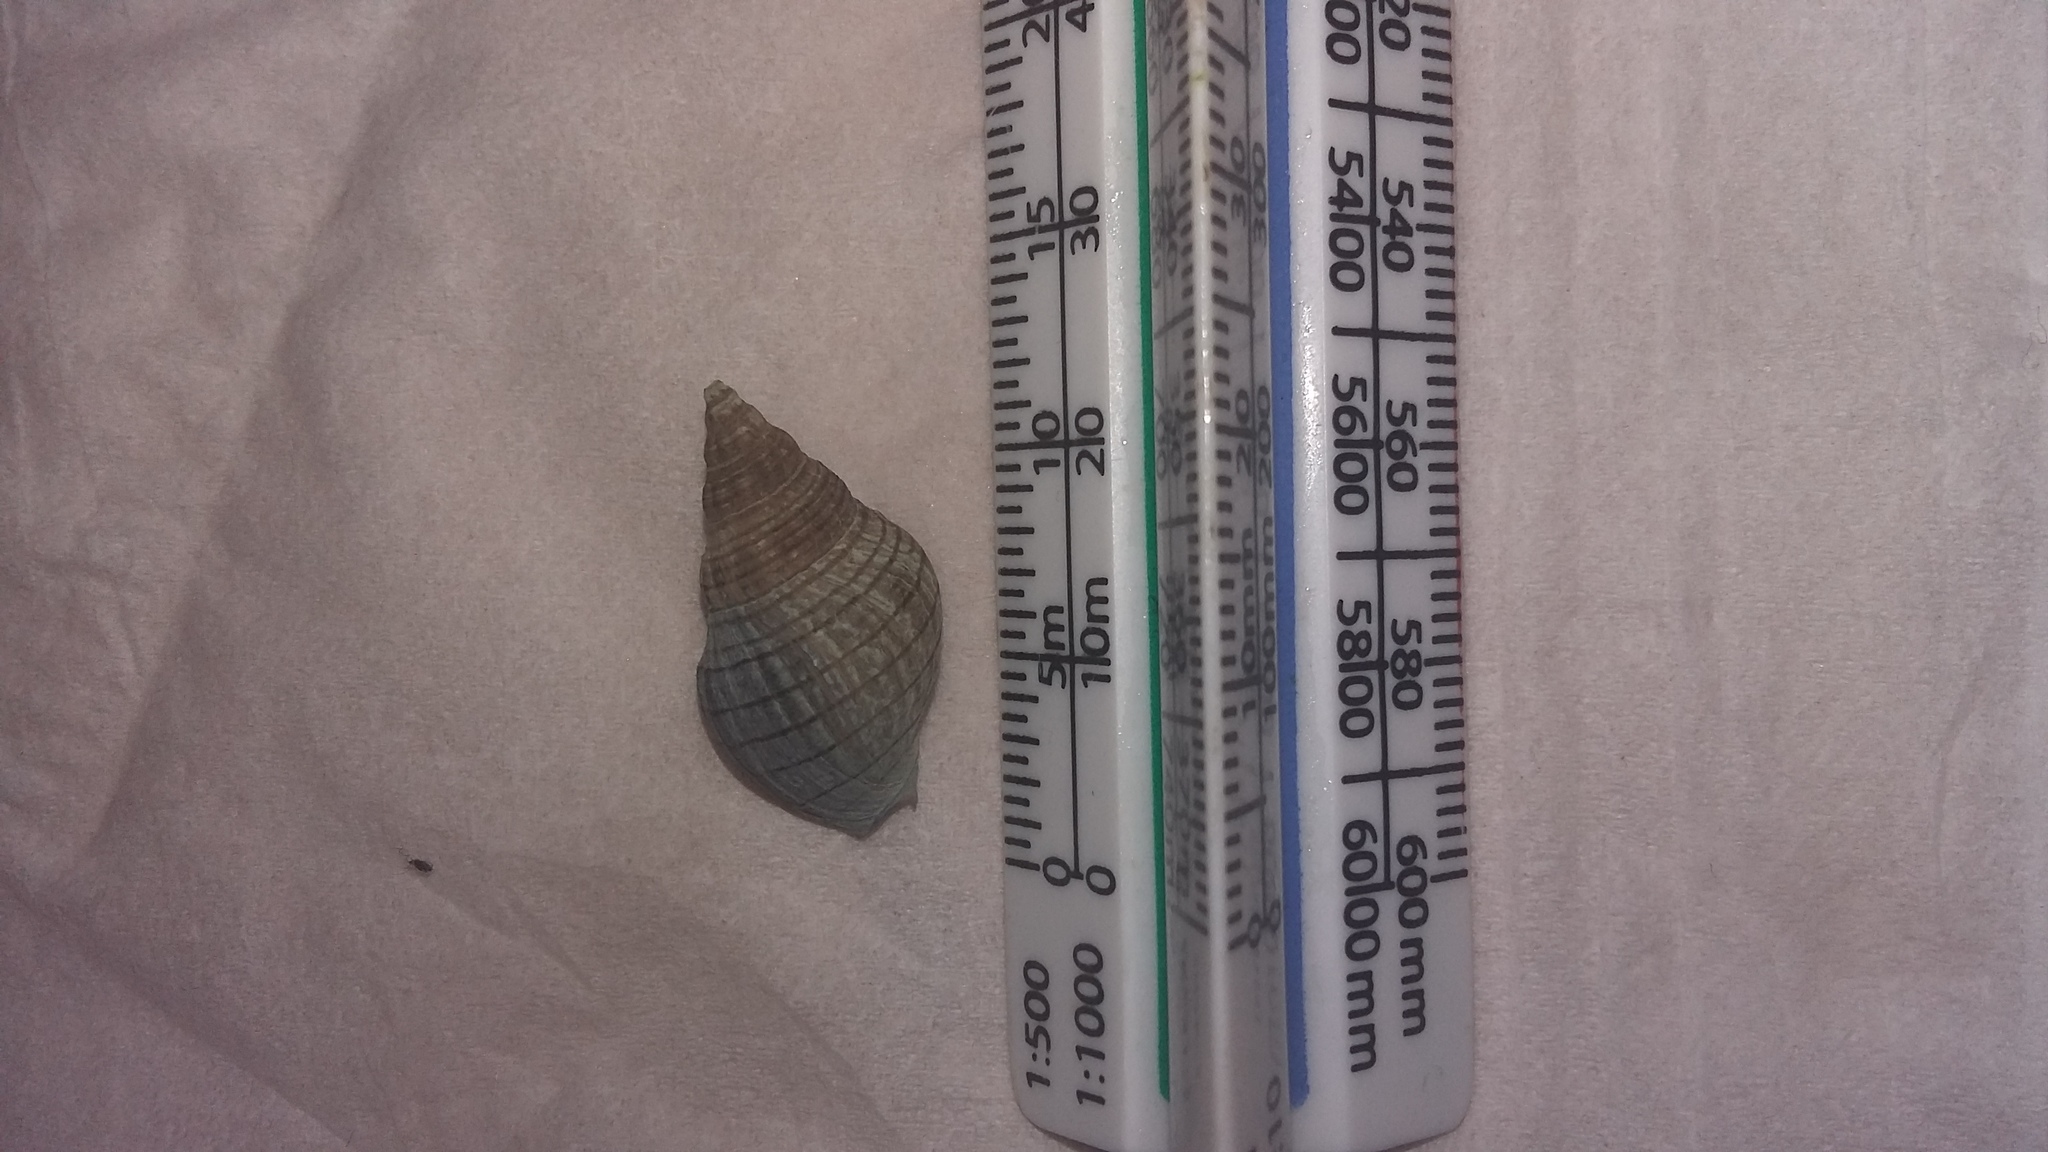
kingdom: Animalia
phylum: Mollusca
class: Gastropoda
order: Neogastropoda
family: Cominellidae
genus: Cominella
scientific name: Cominella virgata
